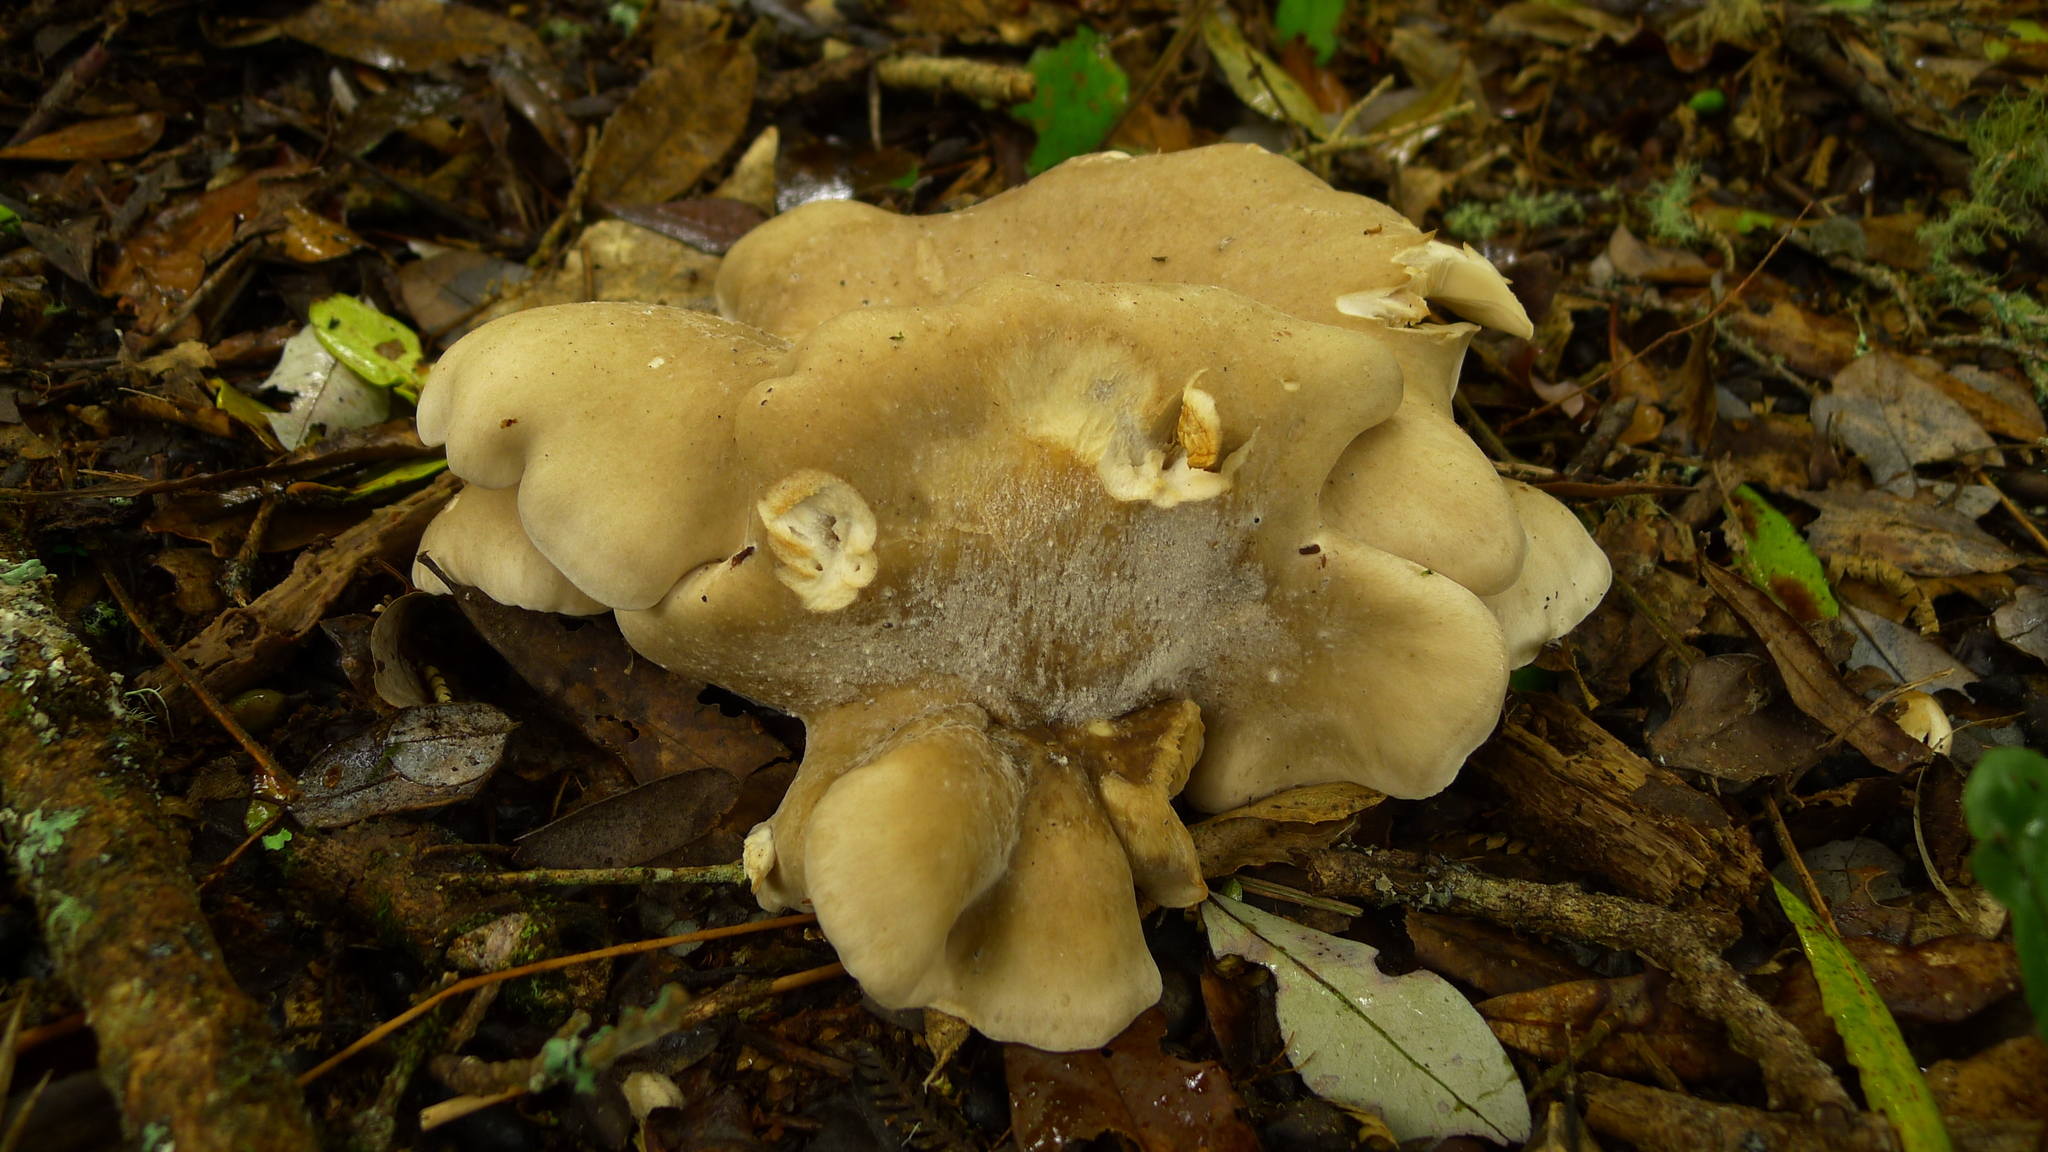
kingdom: Fungi
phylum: Basidiomycota
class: Agaricomycetes
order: Agaricales
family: Tricholomataceae
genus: Clitocybe
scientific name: Clitocybe nebularis
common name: Clouded agaric
